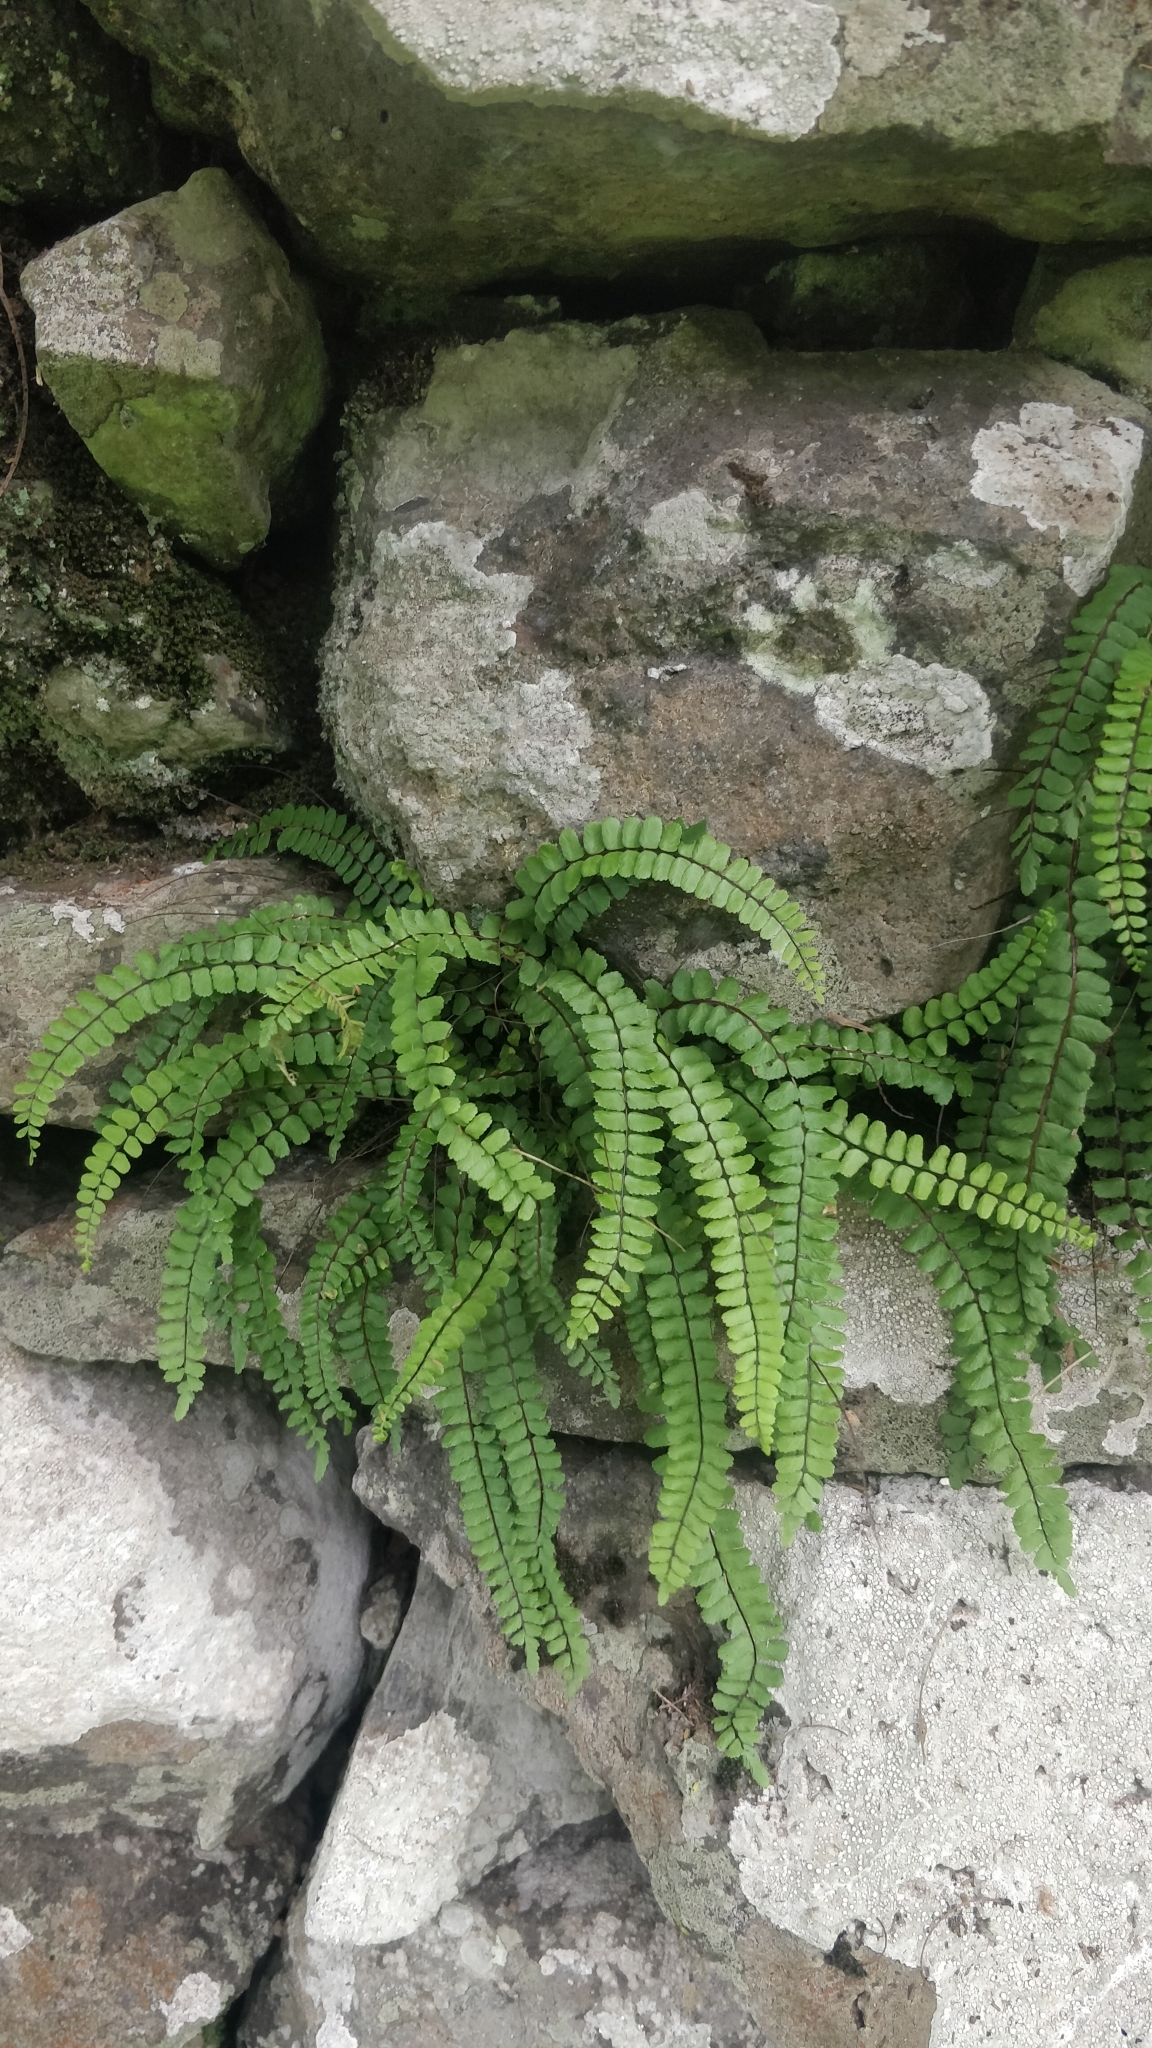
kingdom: Plantae
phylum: Tracheophyta
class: Polypodiopsida
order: Polypodiales
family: Aspleniaceae
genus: Asplenium
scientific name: Asplenium trichomanes
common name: Maidenhair spleenwort
